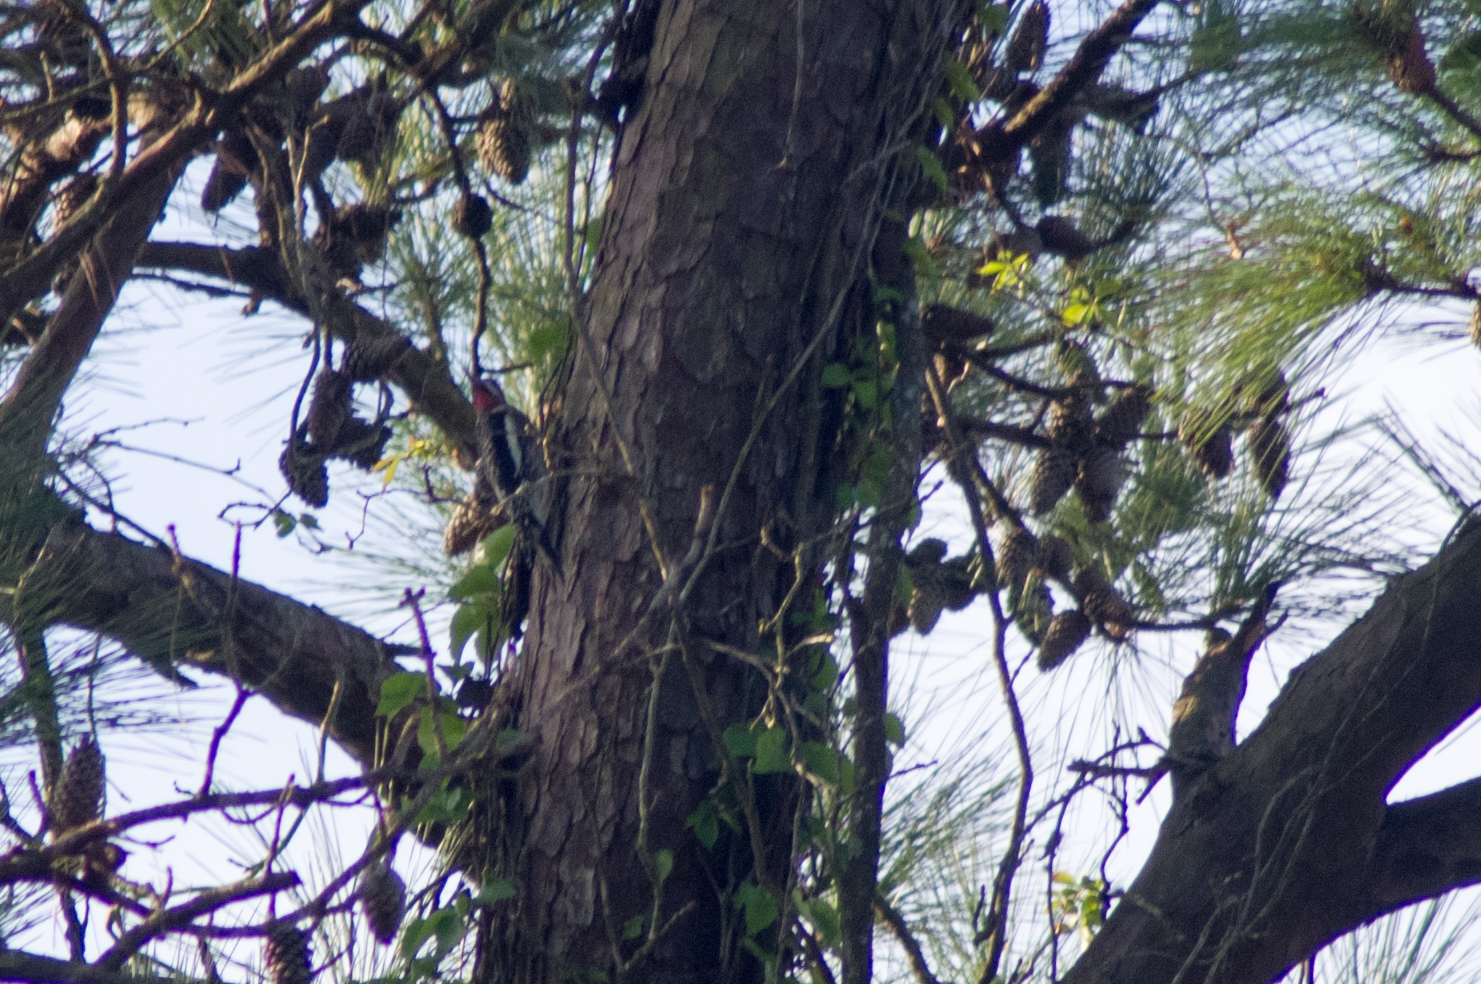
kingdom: Animalia
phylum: Chordata
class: Aves
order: Piciformes
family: Picidae
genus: Sphyrapicus
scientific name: Sphyrapicus varius
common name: Yellow-bellied sapsucker
